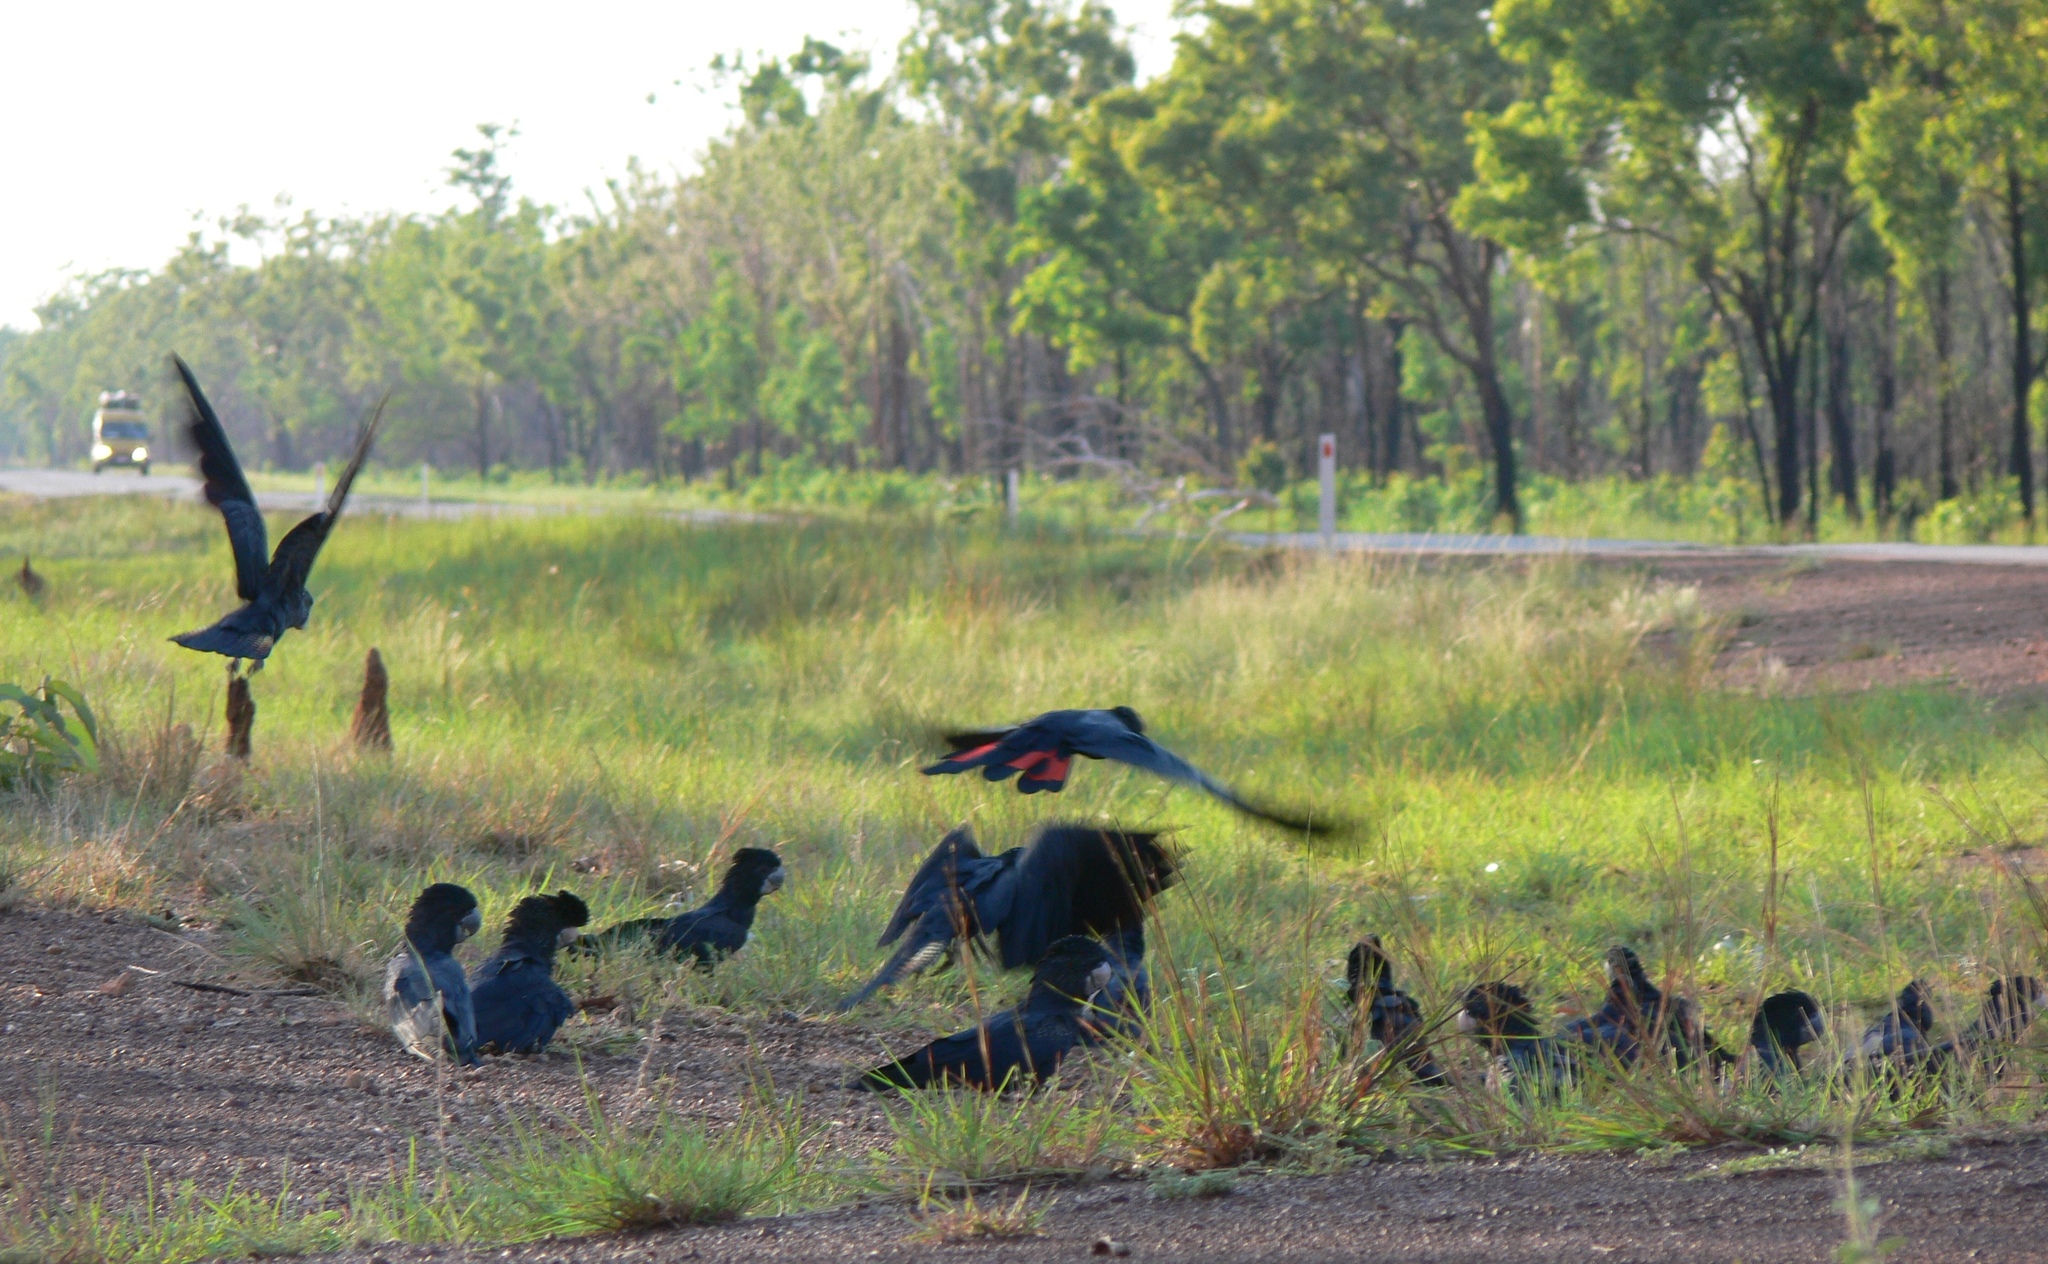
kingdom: Animalia
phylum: Chordata
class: Aves
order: Psittaciformes
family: Psittacidae
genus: Calyptorhynchus
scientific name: Calyptorhynchus banksii
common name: Red-tailed black cockatoo
